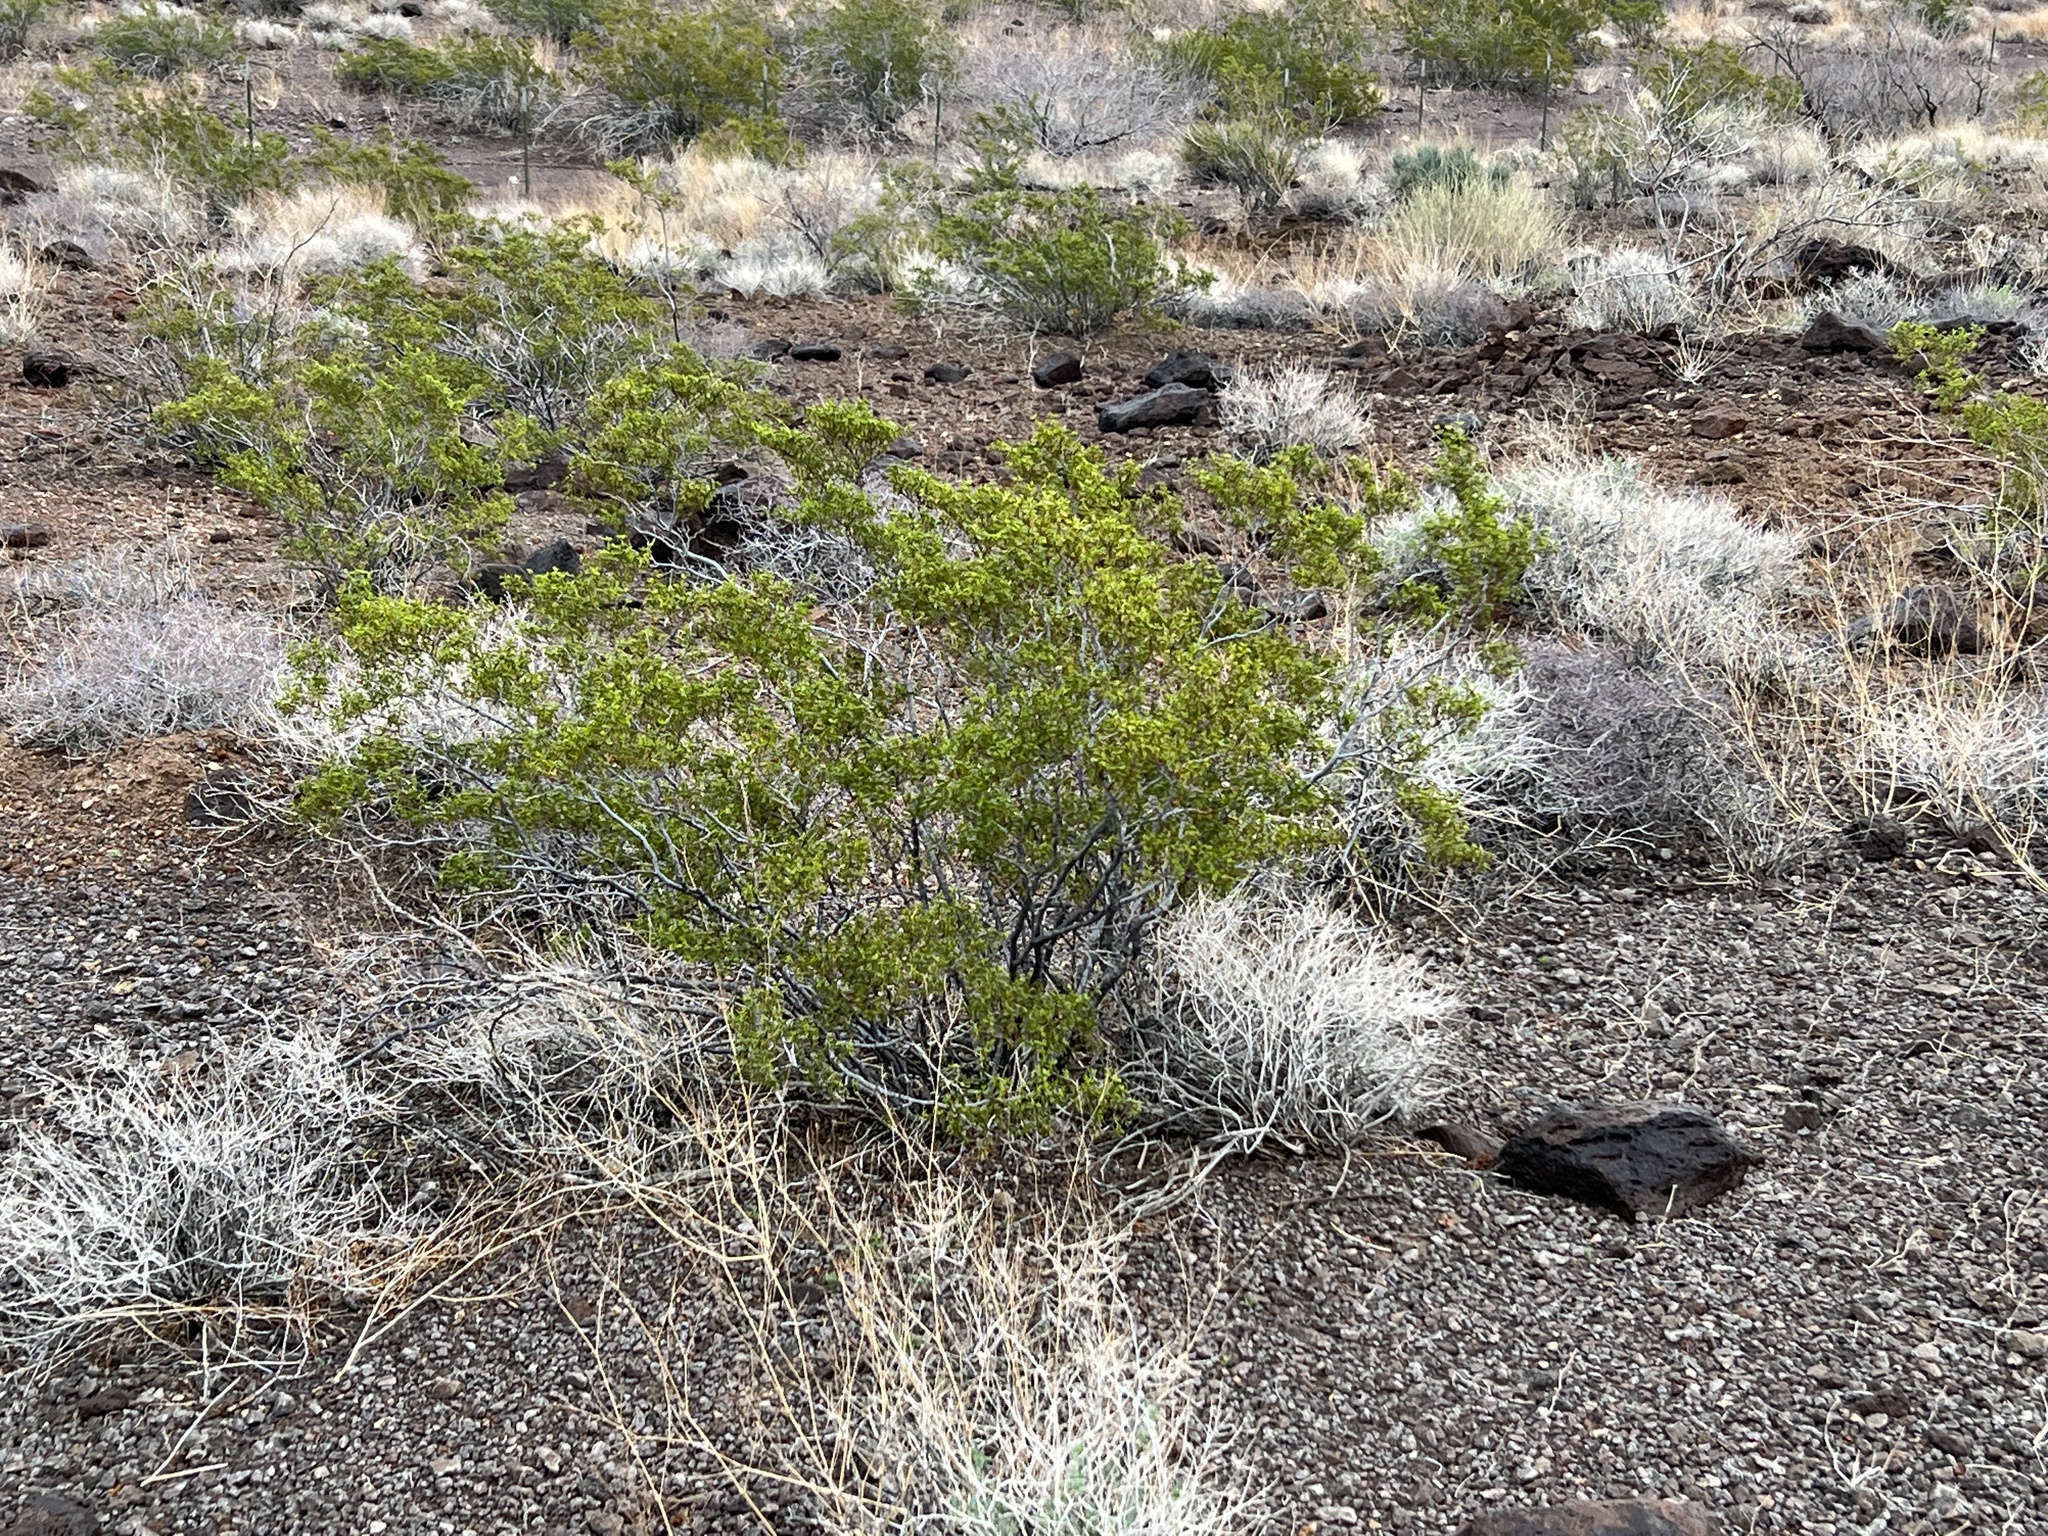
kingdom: Plantae
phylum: Tracheophyta
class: Magnoliopsida
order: Zygophyllales
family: Zygophyllaceae
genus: Larrea
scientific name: Larrea tridentata
